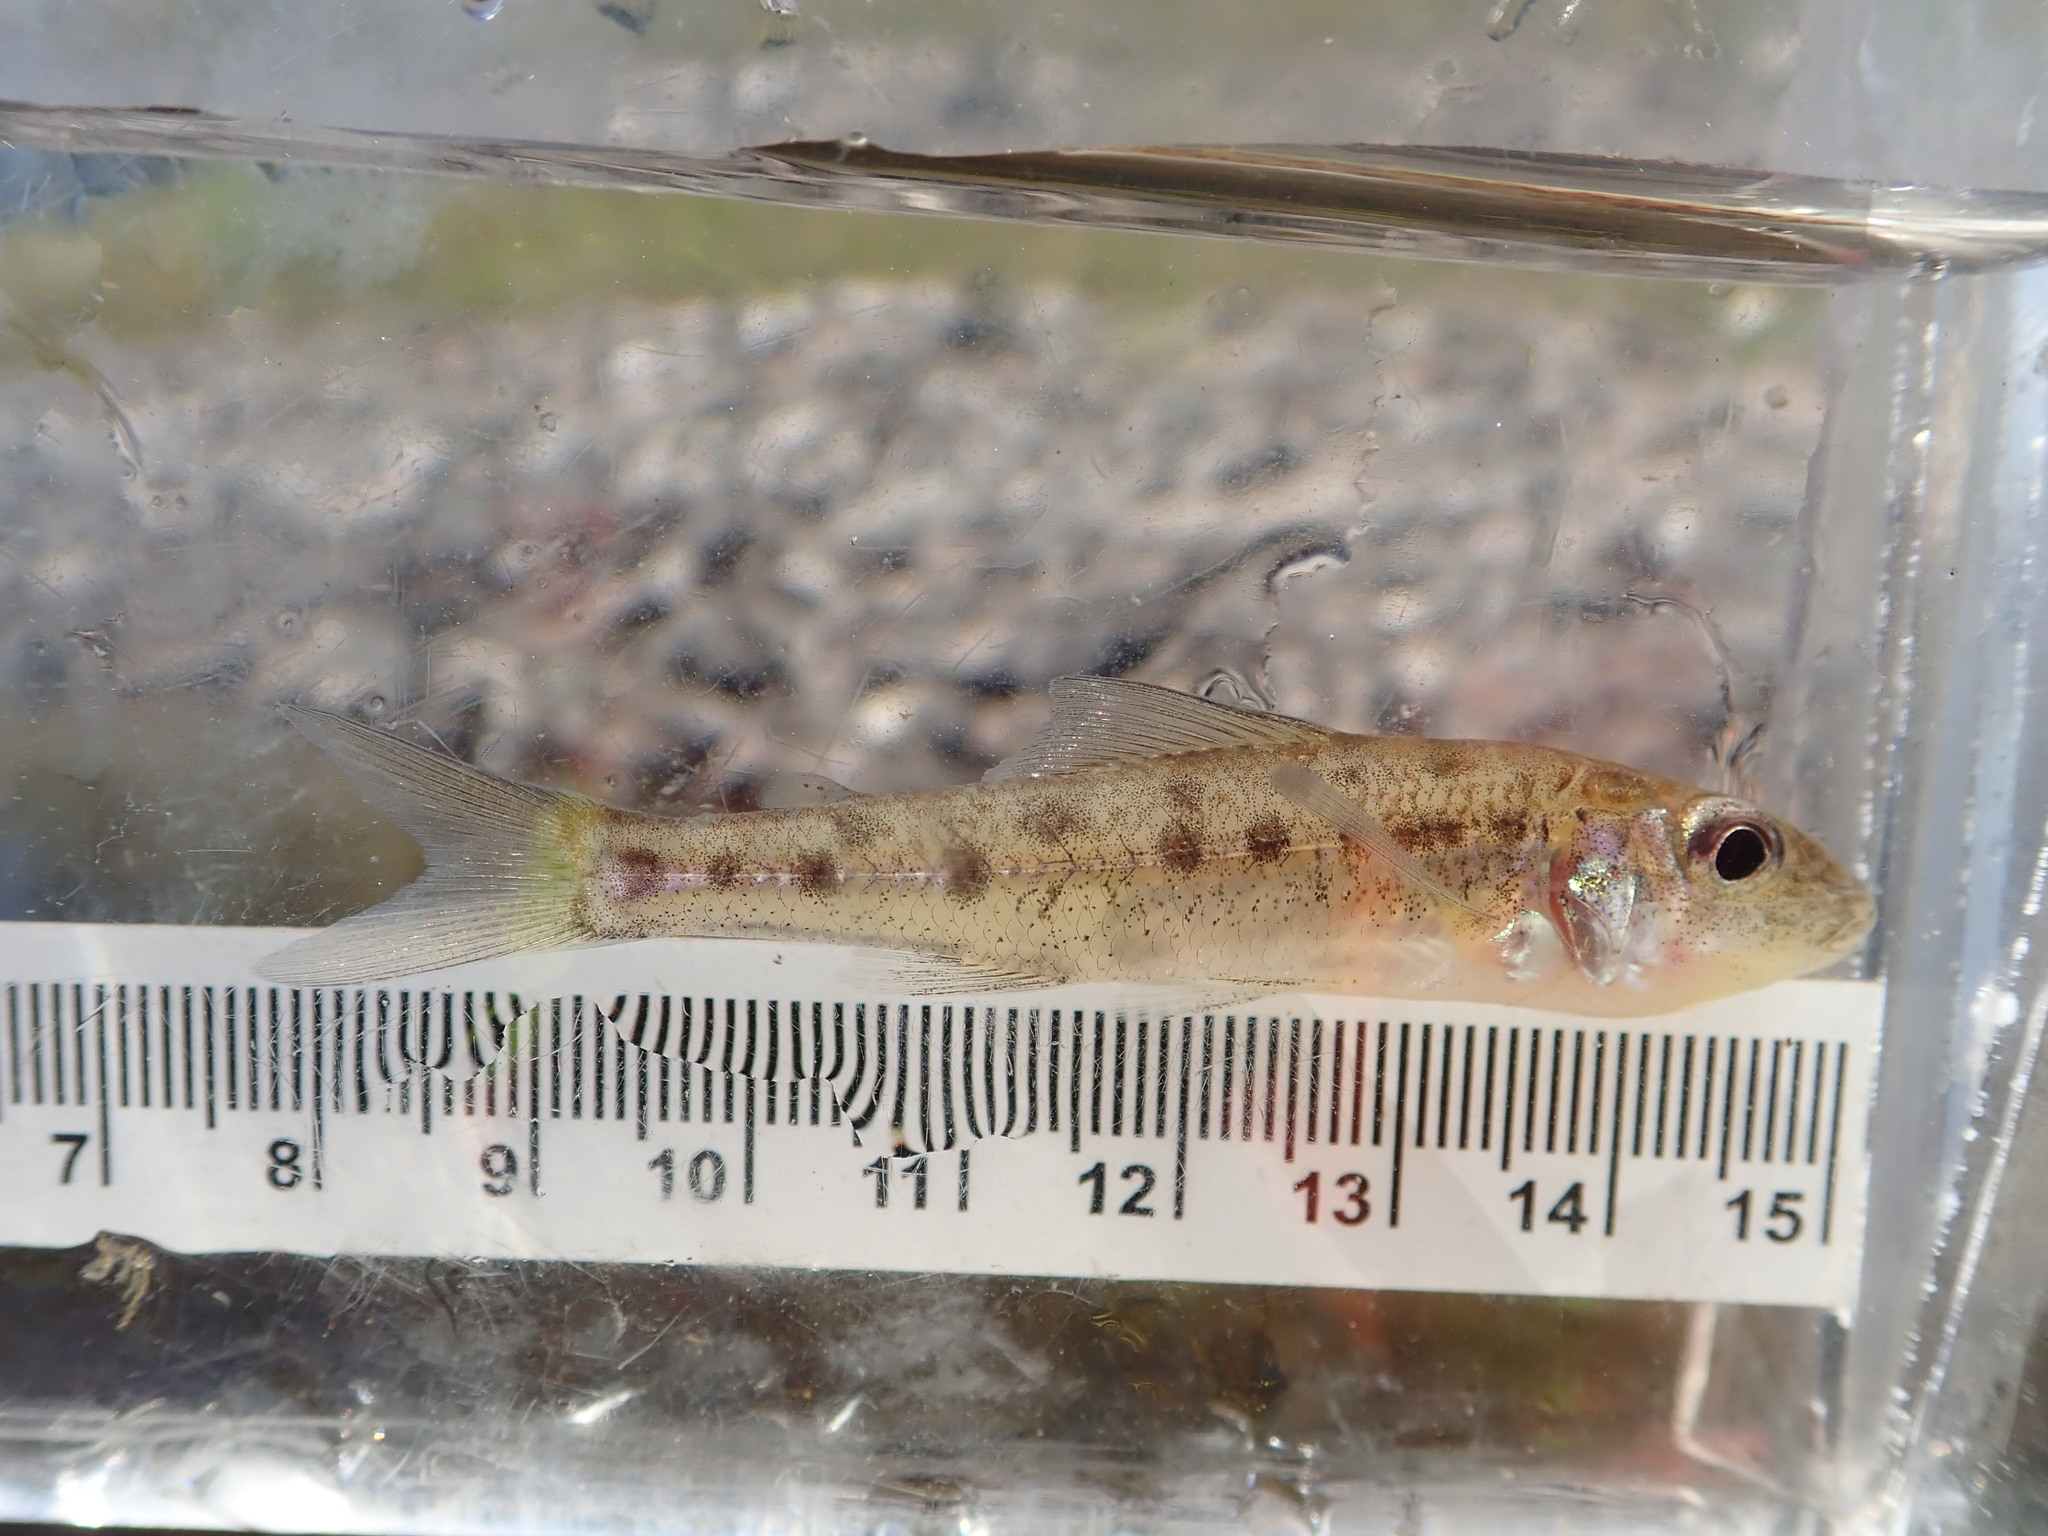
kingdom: Animalia
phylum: Chordata
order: Percopsiformes
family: Percopsidae
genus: Percopsis
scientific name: Percopsis omiscomaycus
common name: Trout-perch
